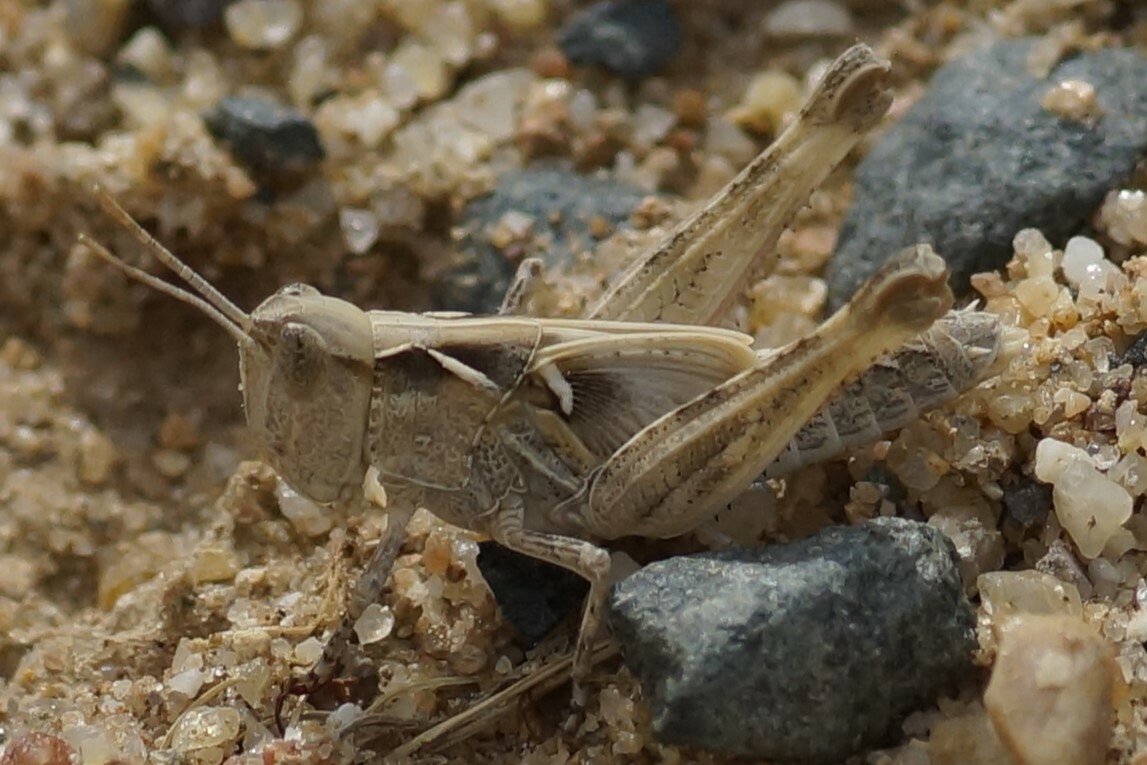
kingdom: Animalia
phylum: Arthropoda
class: Insecta
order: Orthoptera
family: Acrididae
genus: Chortoicetes
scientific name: Chortoicetes terminifera
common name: Australian plague locust
